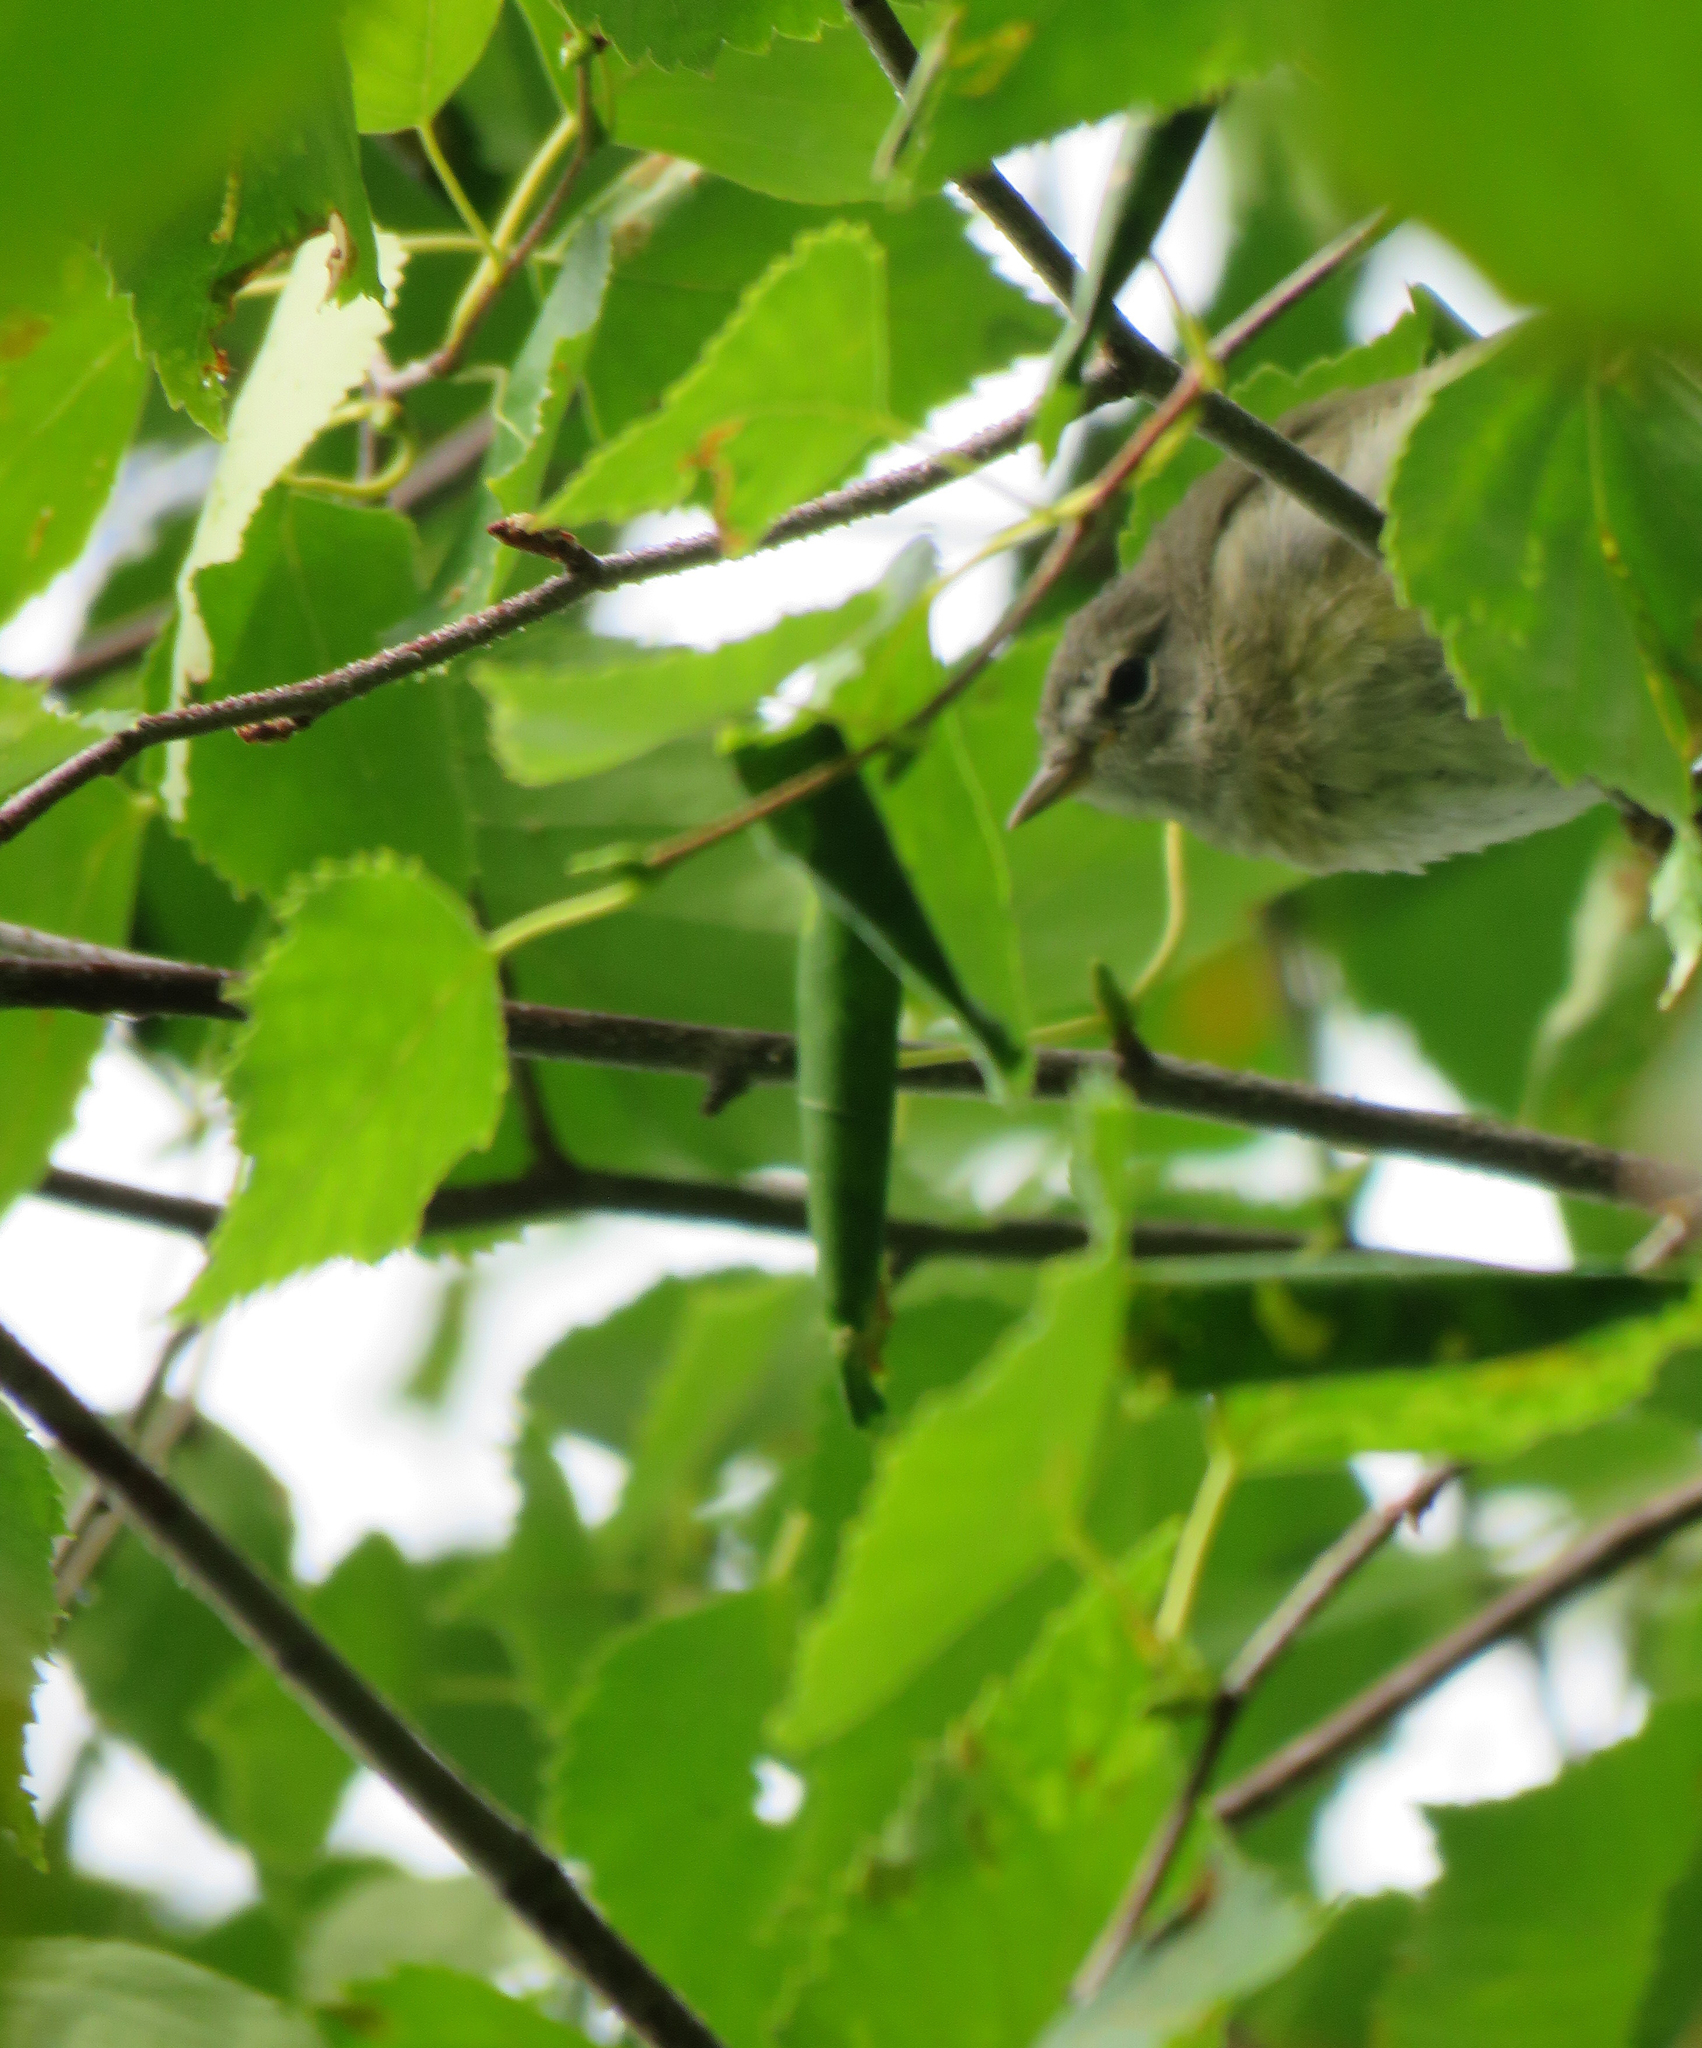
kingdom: Animalia
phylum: Chordata
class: Aves
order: Passeriformes
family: Parulidae
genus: Leiothlypis
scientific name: Leiothlypis celata
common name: Orange-crowned warbler
